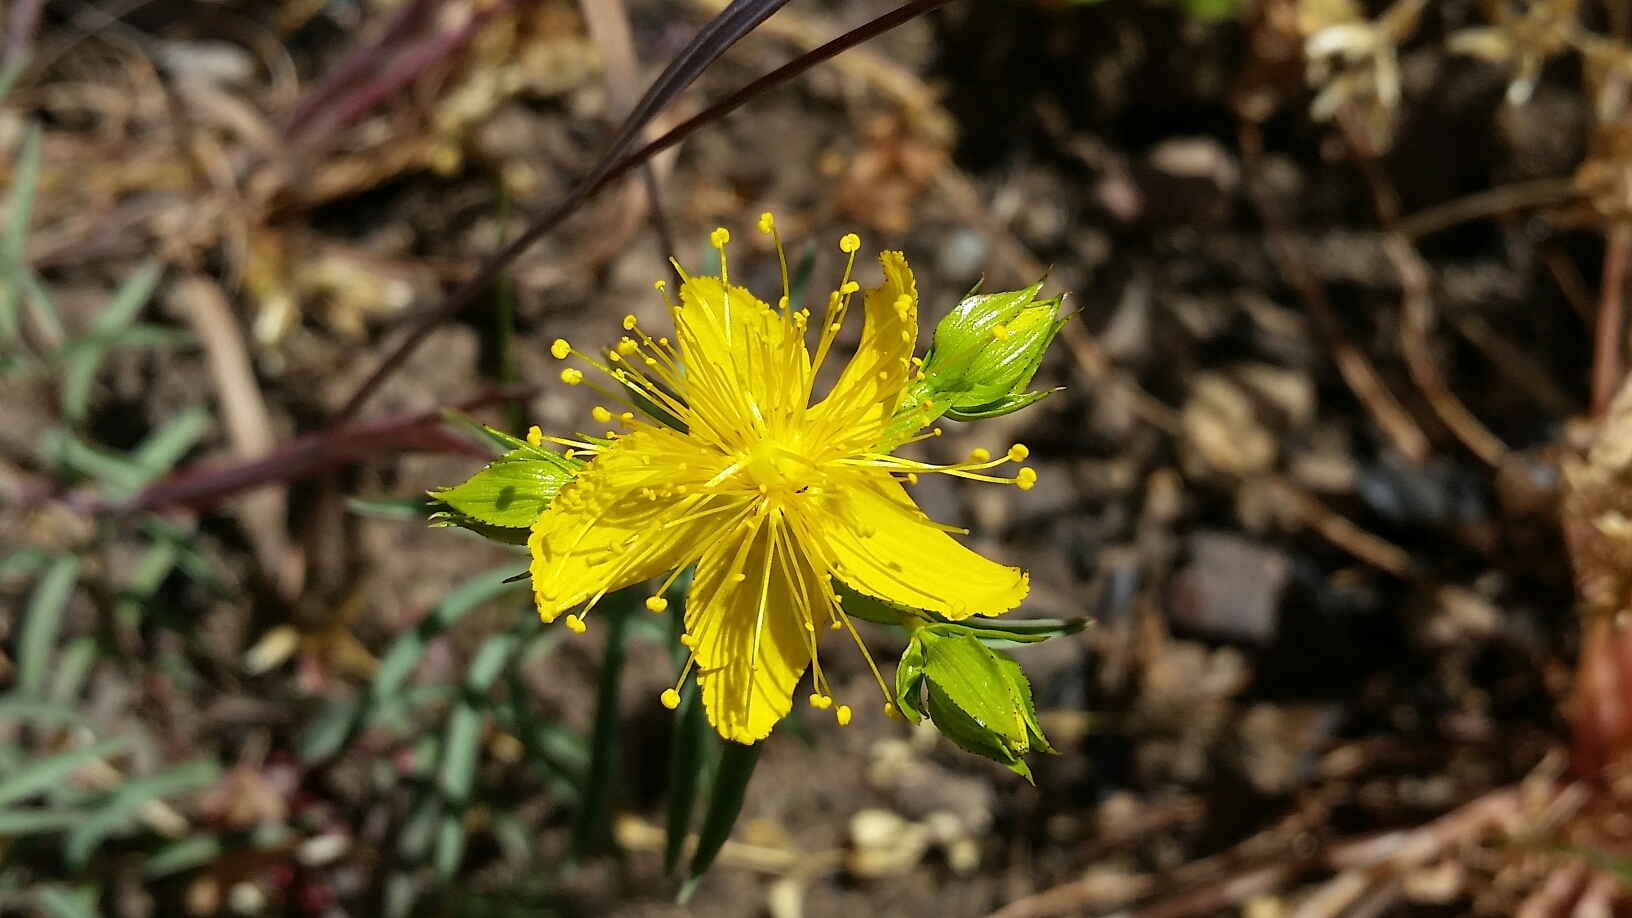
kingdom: Plantae
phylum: Tracheophyta
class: Magnoliopsida
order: Malpighiales
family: Hypericaceae
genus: Hypericum
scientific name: Hypericum concinnum
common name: Gold-wire
